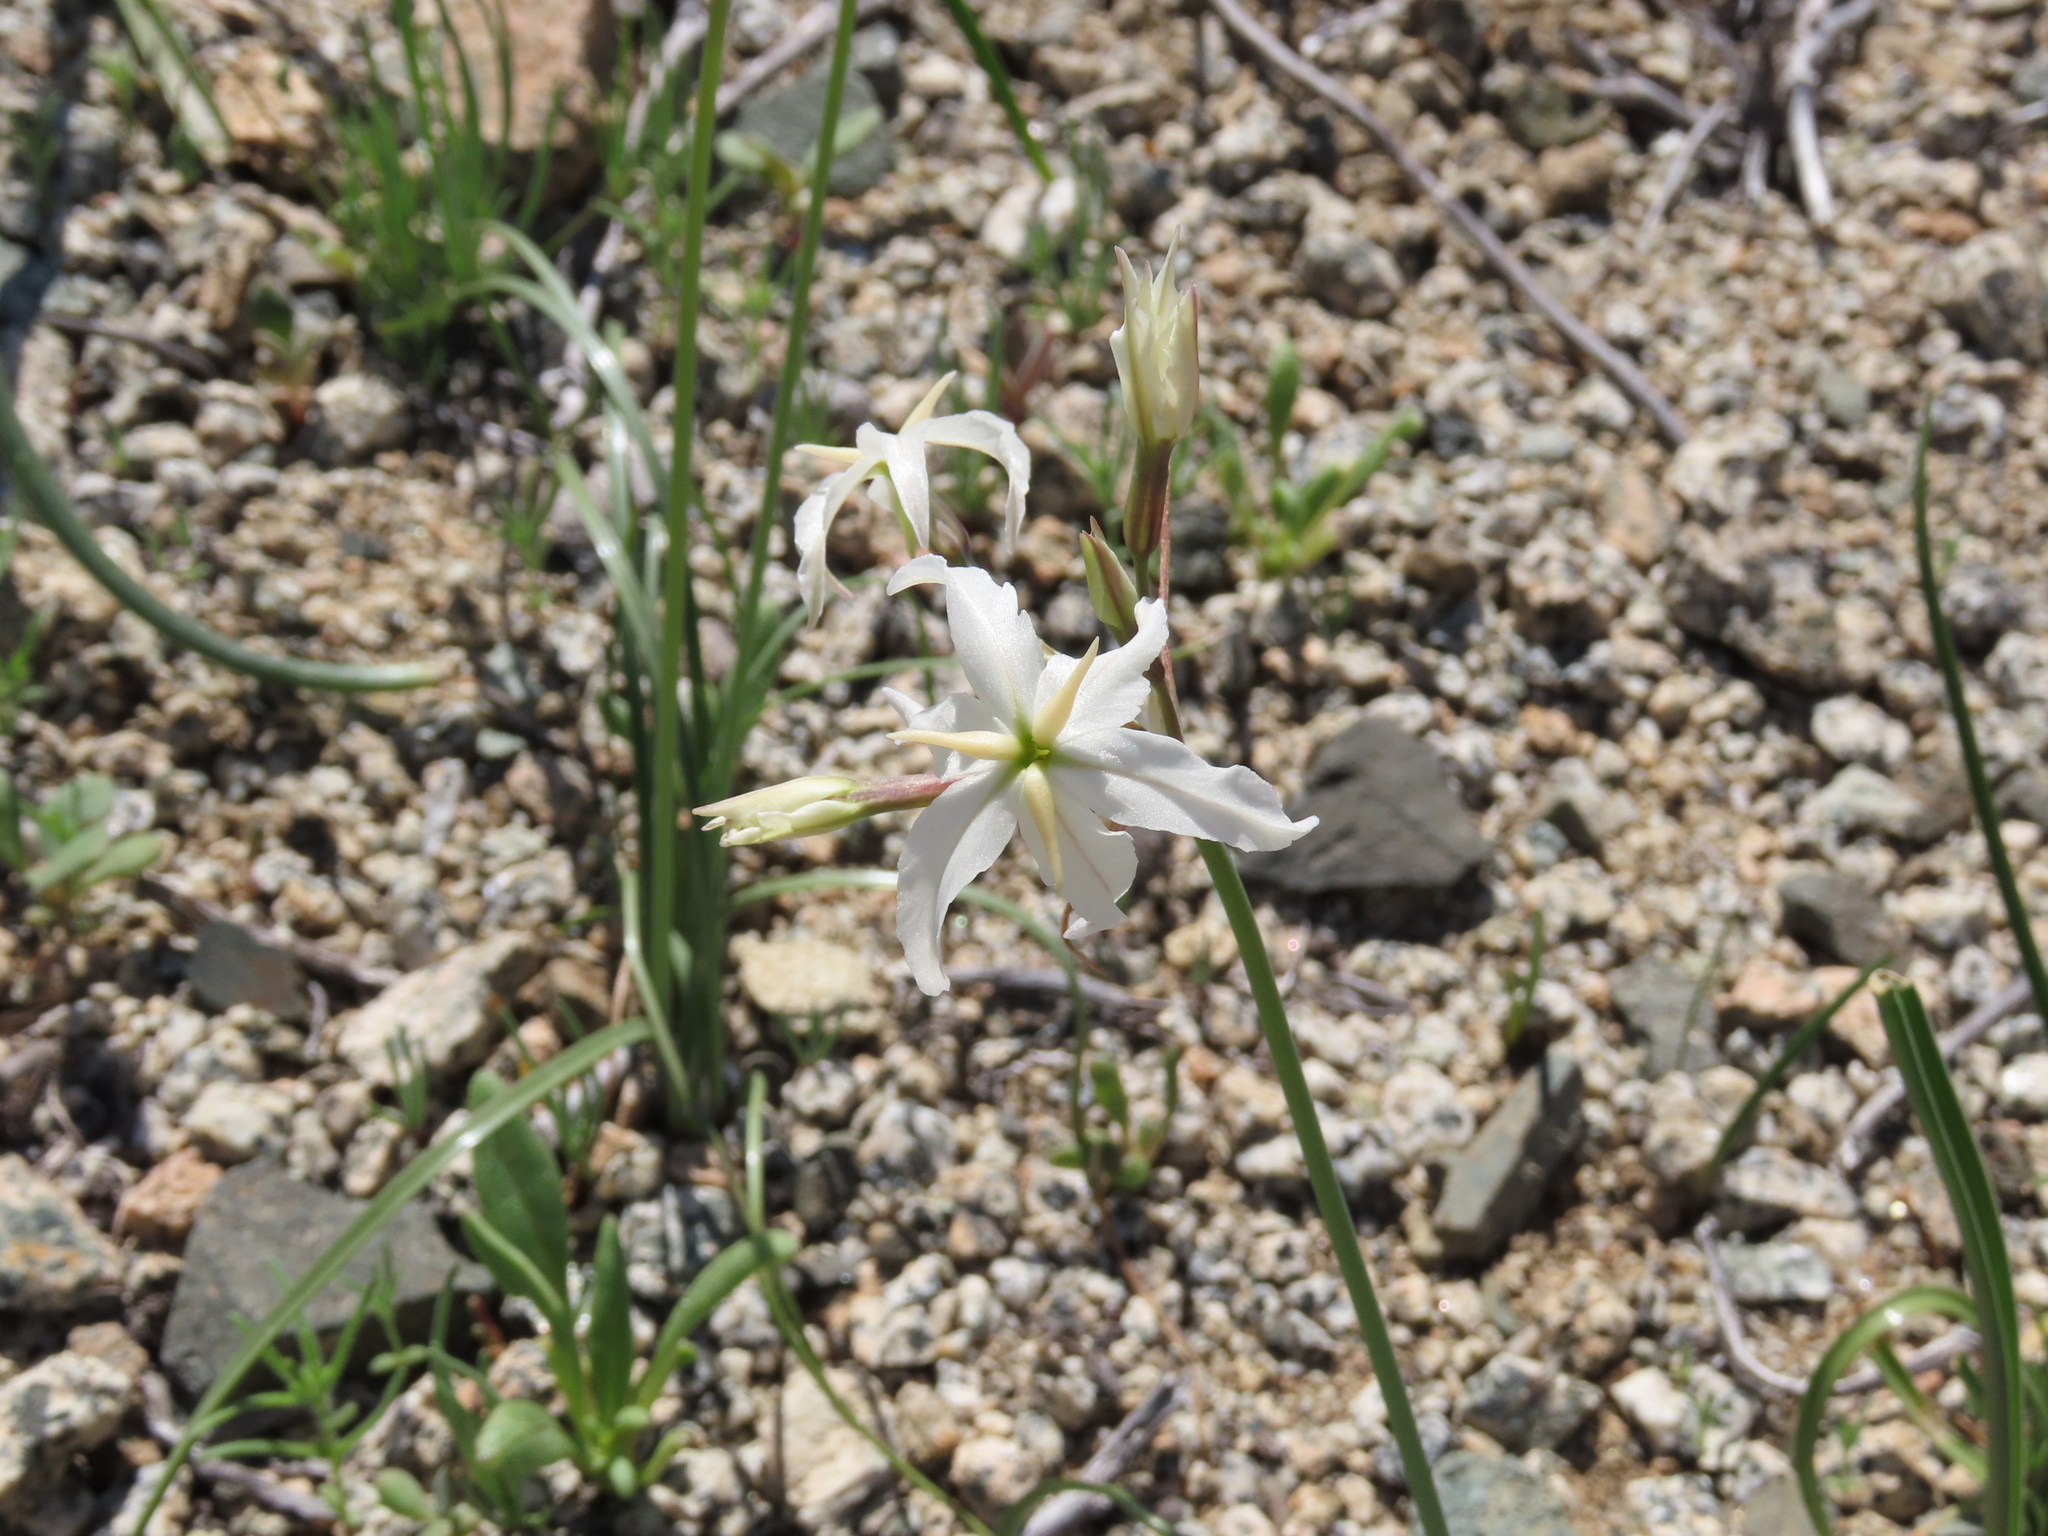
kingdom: Plantae
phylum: Tracheophyta
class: Liliopsida
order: Asparagales
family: Amaryllidaceae
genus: Leucocoryne
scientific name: Leucocoryne appendiculata
